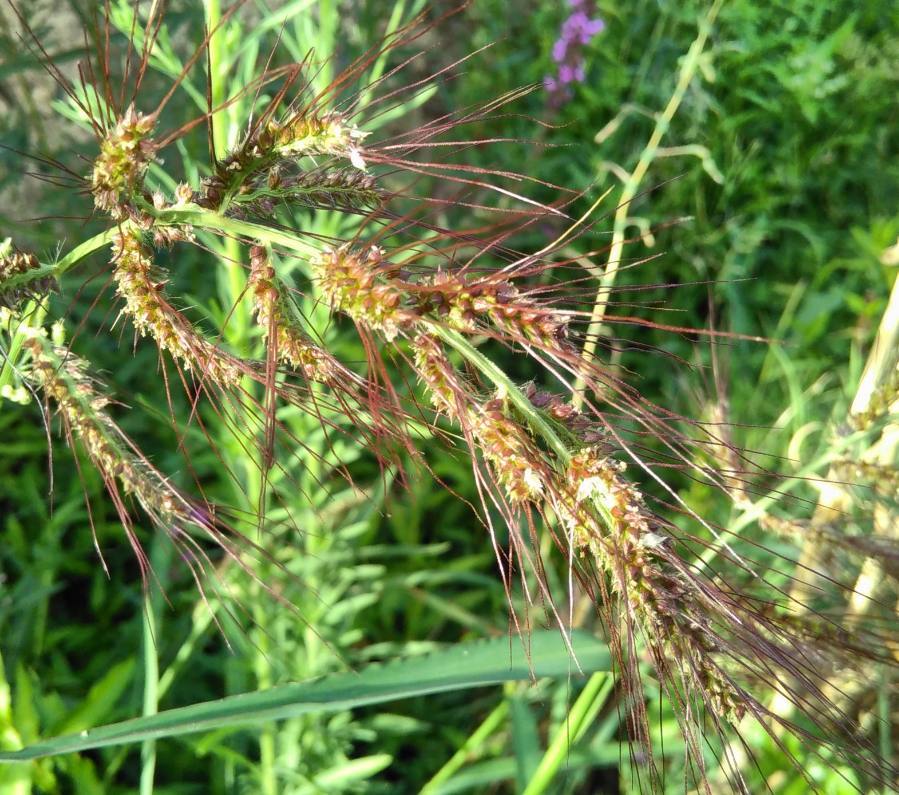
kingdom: Plantae
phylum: Tracheophyta
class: Liliopsida
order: Poales
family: Poaceae
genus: Echinochloa
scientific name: Echinochloa crus-galli
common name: Cockspur
